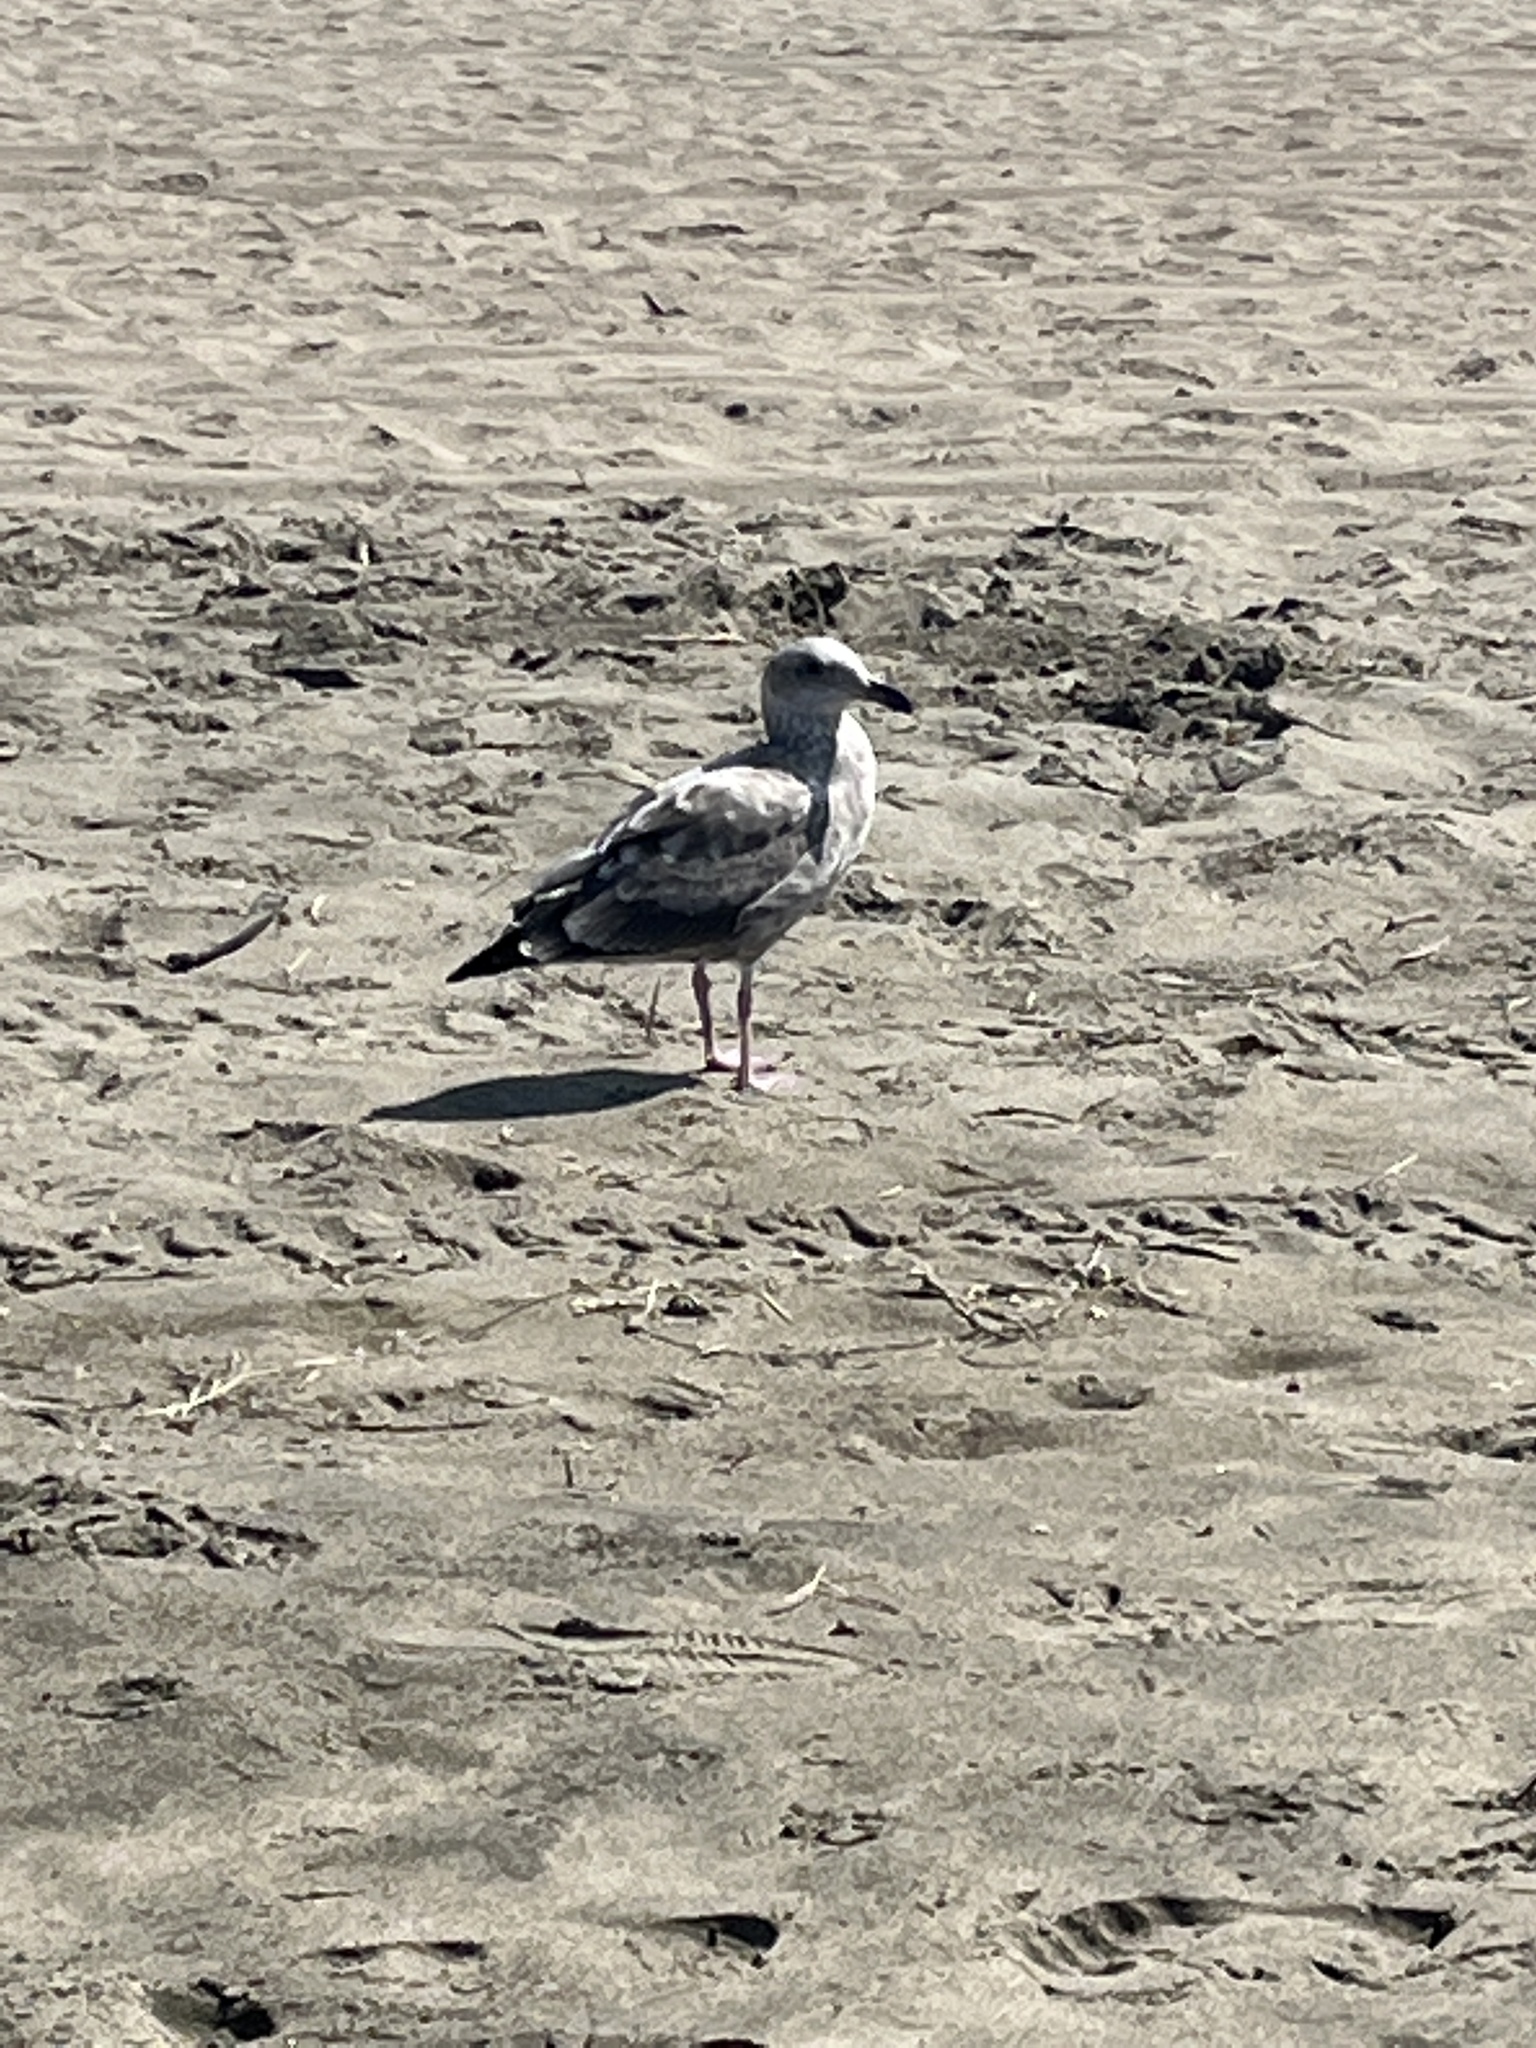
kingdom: Animalia
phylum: Chordata
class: Aves
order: Charadriiformes
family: Laridae
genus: Larus
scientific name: Larus occidentalis
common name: Western gull
